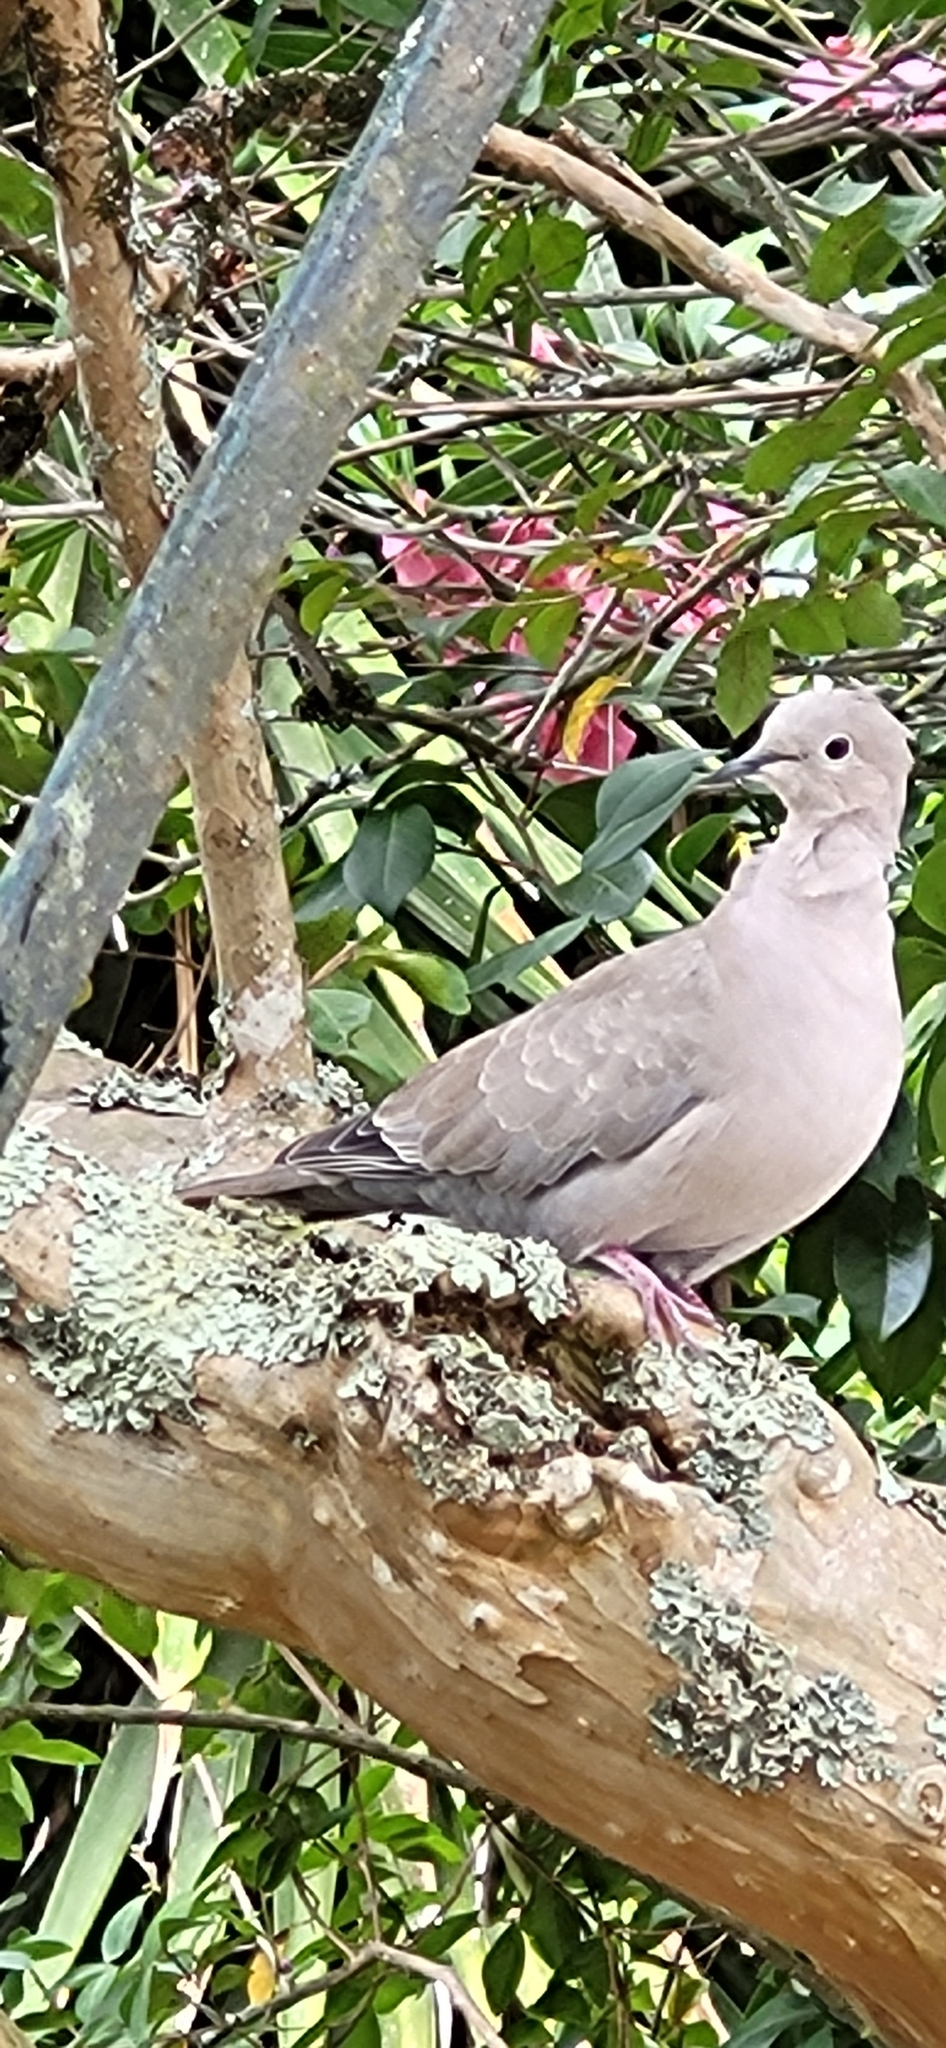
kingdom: Animalia
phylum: Chordata
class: Aves
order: Columbiformes
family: Columbidae
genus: Streptopelia
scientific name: Streptopelia decaocto
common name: Eurasian collared dove
